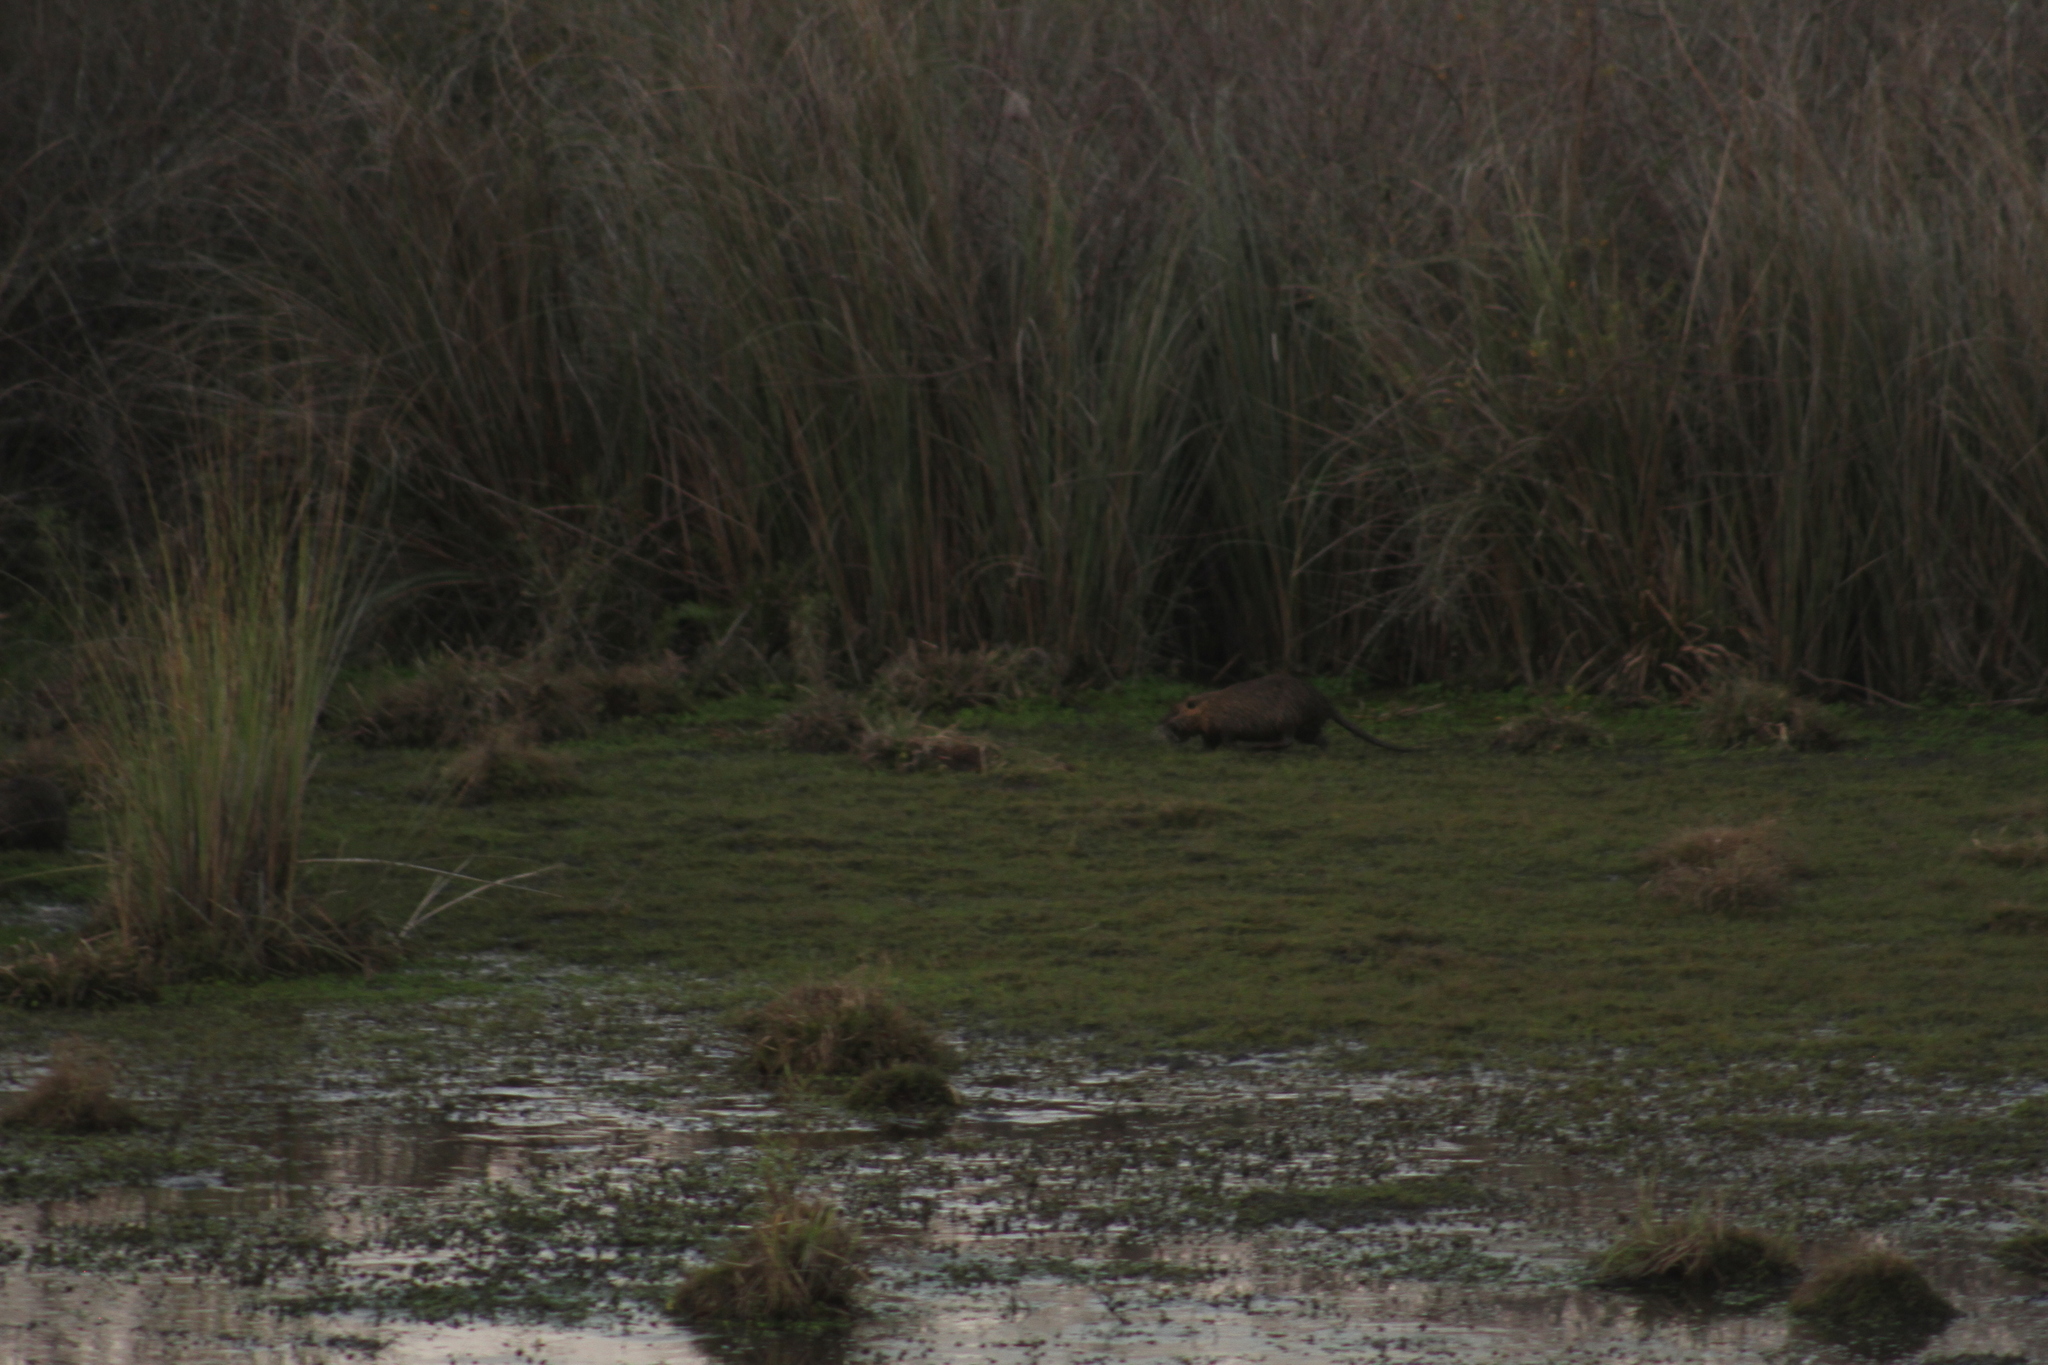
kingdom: Animalia
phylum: Chordata
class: Mammalia
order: Rodentia
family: Myocastoridae
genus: Myocastor
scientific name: Myocastor coypus
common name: Coypu
